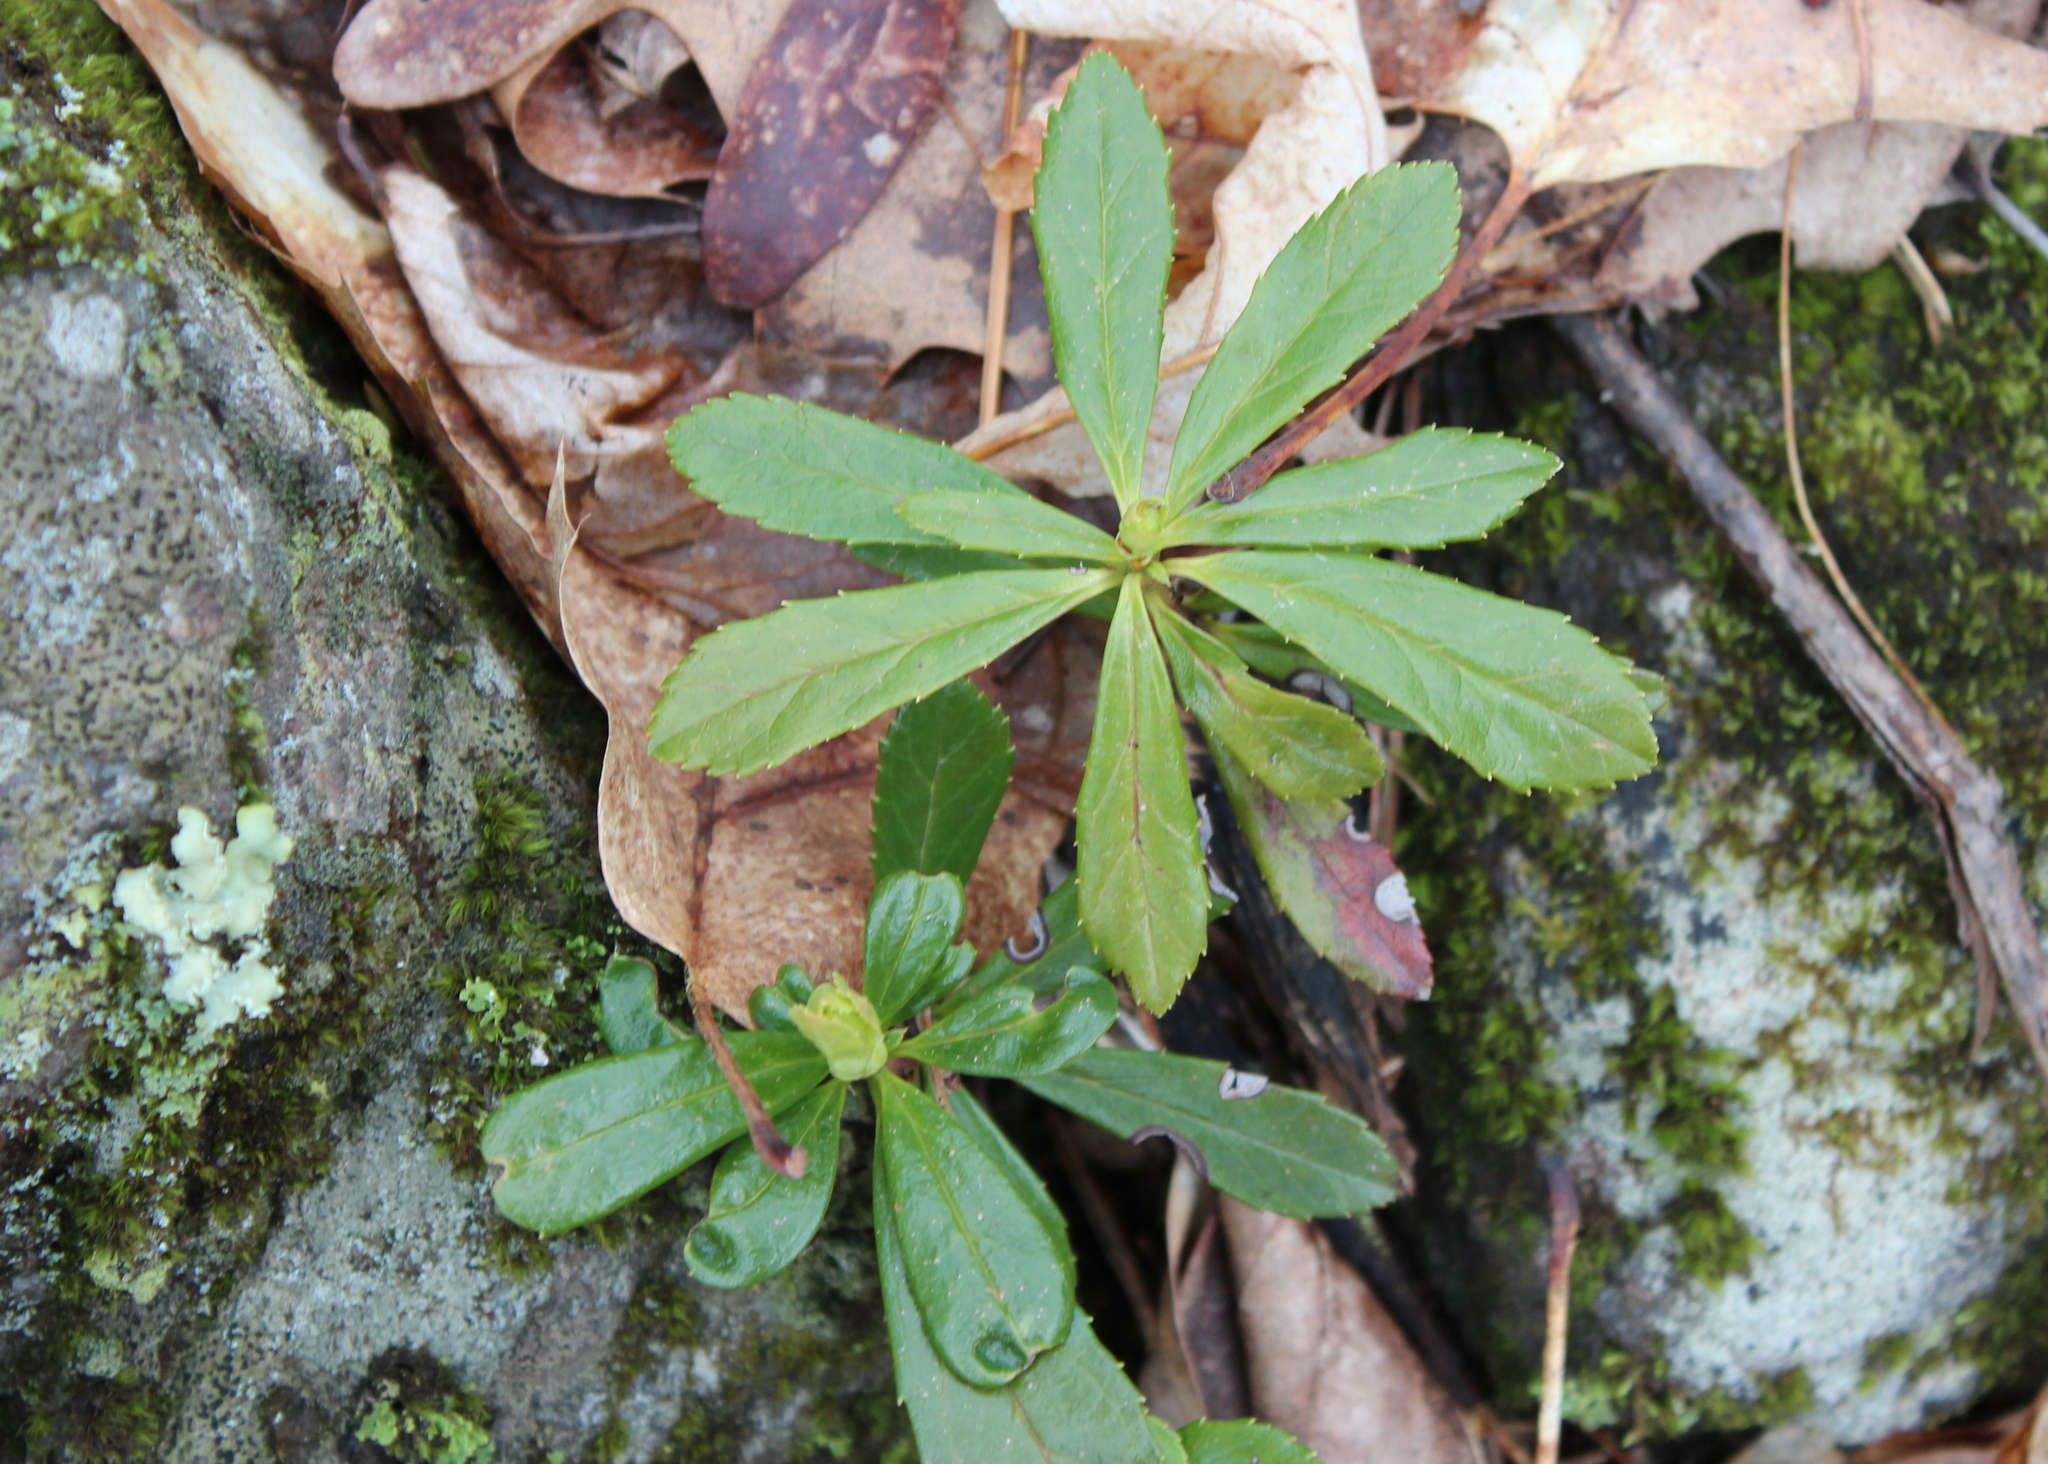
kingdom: Plantae
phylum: Tracheophyta
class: Magnoliopsida
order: Ericales
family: Ericaceae
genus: Chimaphila
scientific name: Chimaphila umbellata
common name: Pipsissewa
